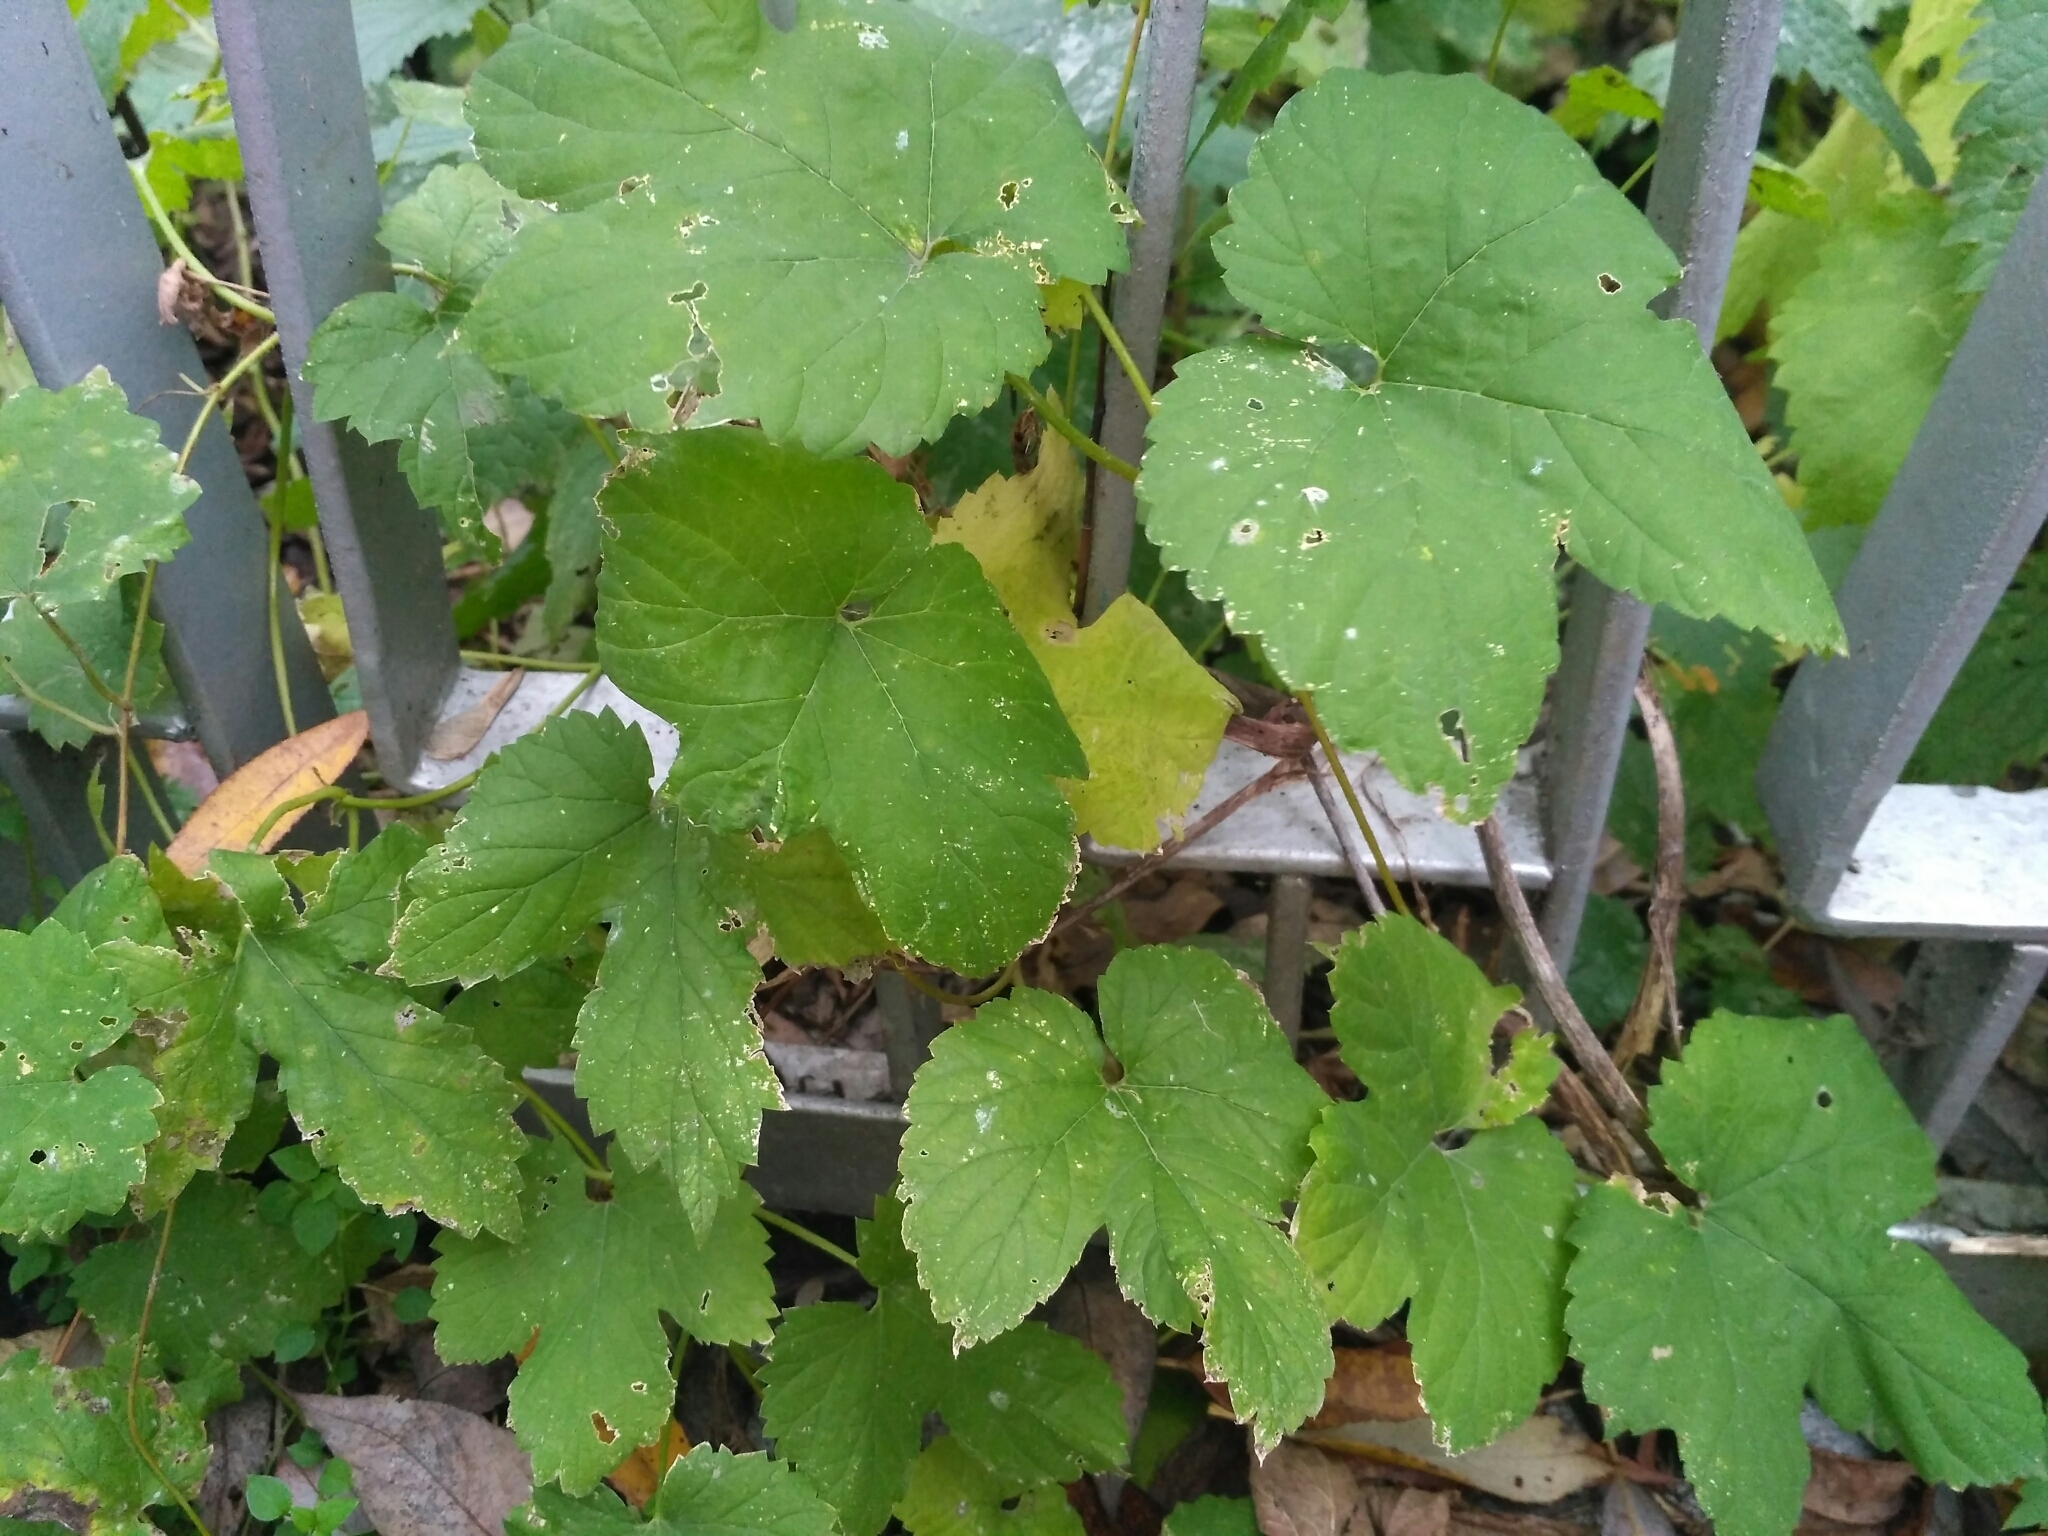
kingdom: Plantae
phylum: Tracheophyta
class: Magnoliopsida
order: Rosales
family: Cannabaceae
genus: Humulus
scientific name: Humulus lupulus
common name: Hop
